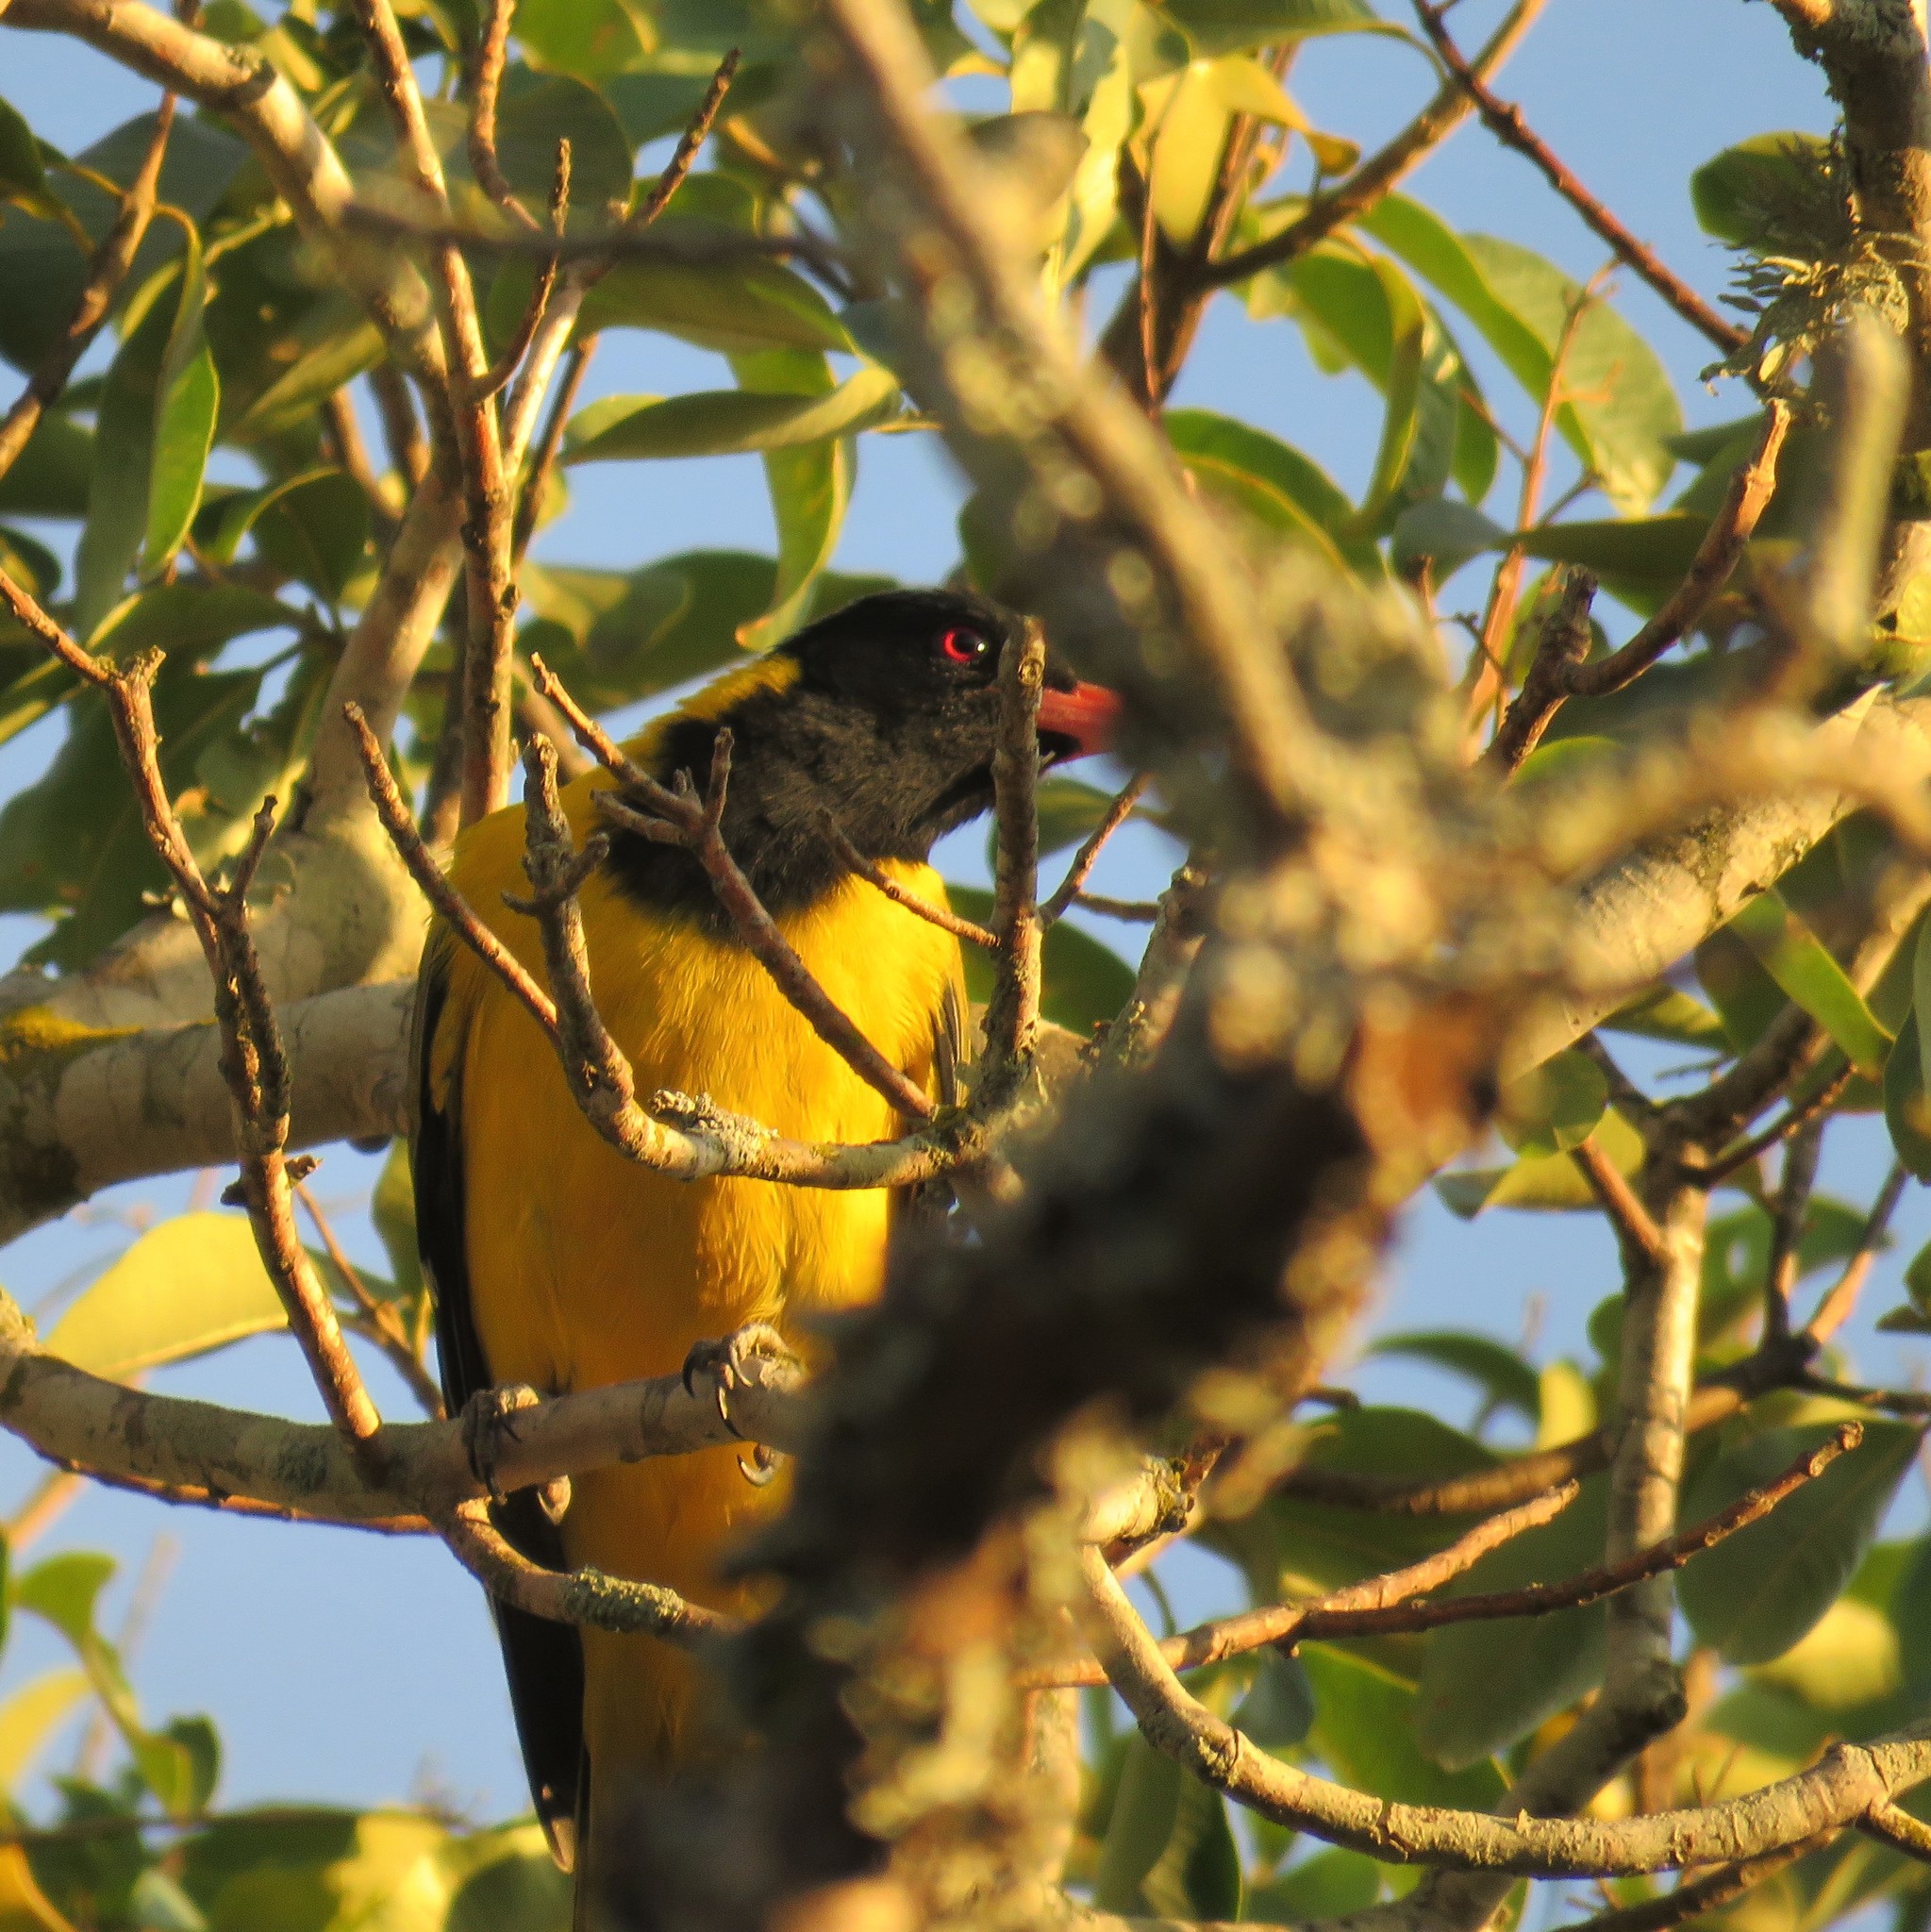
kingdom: Animalia
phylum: Chordata
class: Aves
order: Passeriformes
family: Oriolidae
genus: Oriolus
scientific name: Oriolus larvatus
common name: Black-headed oriole
